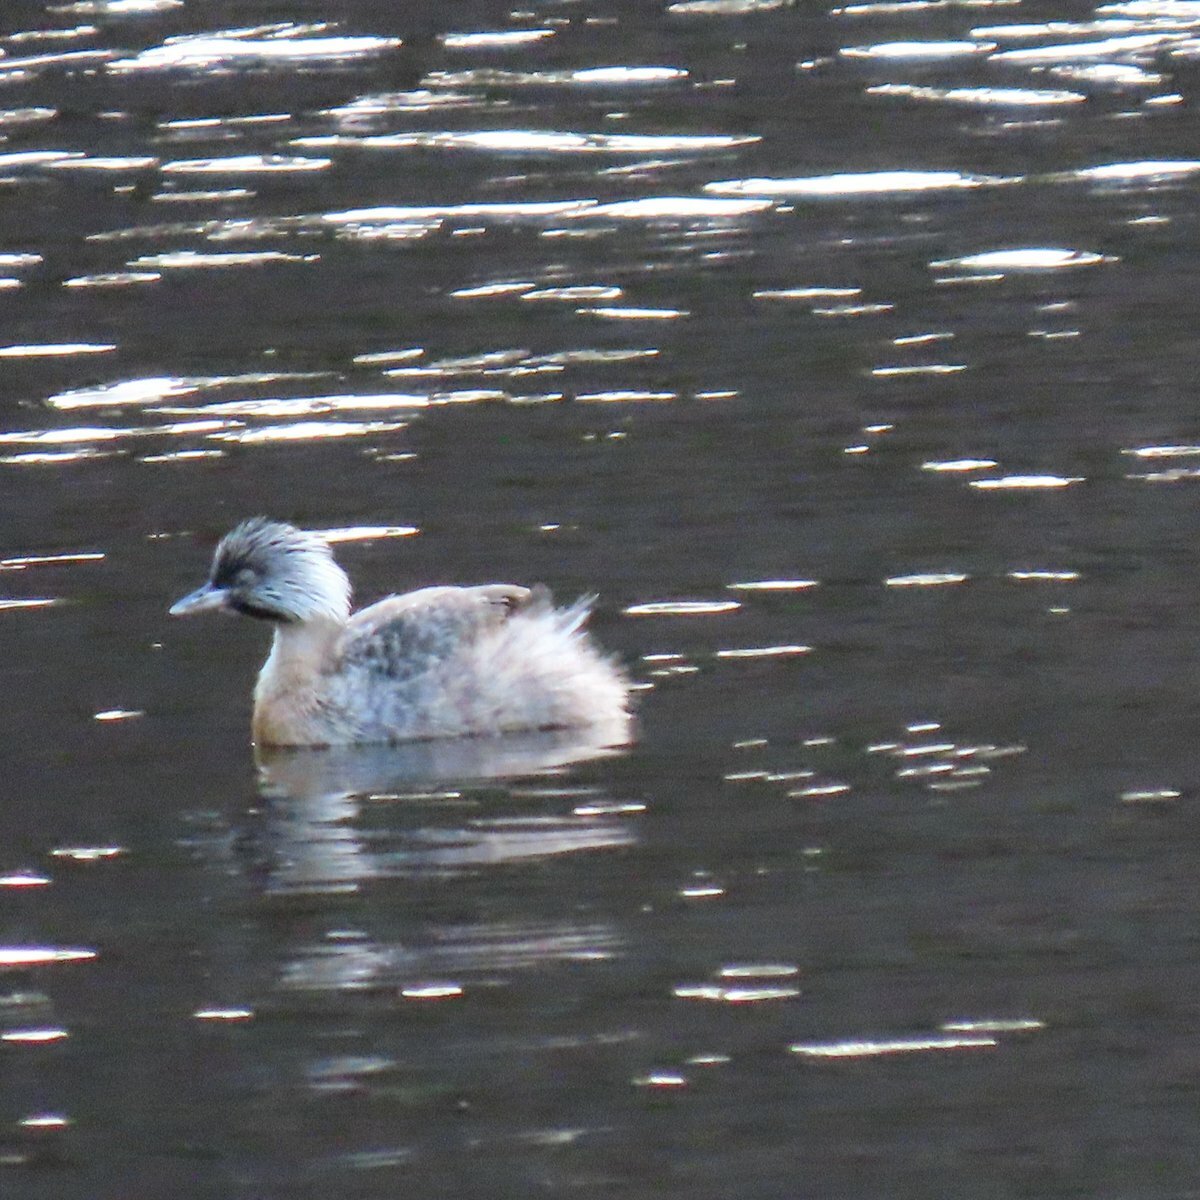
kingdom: Animalia
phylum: Chordata
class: Aves
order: Podicipediformes
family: Podicipedidae
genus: Poliocephalus
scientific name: Poliocephalus poliocephalus
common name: Hoary-headed grebe
